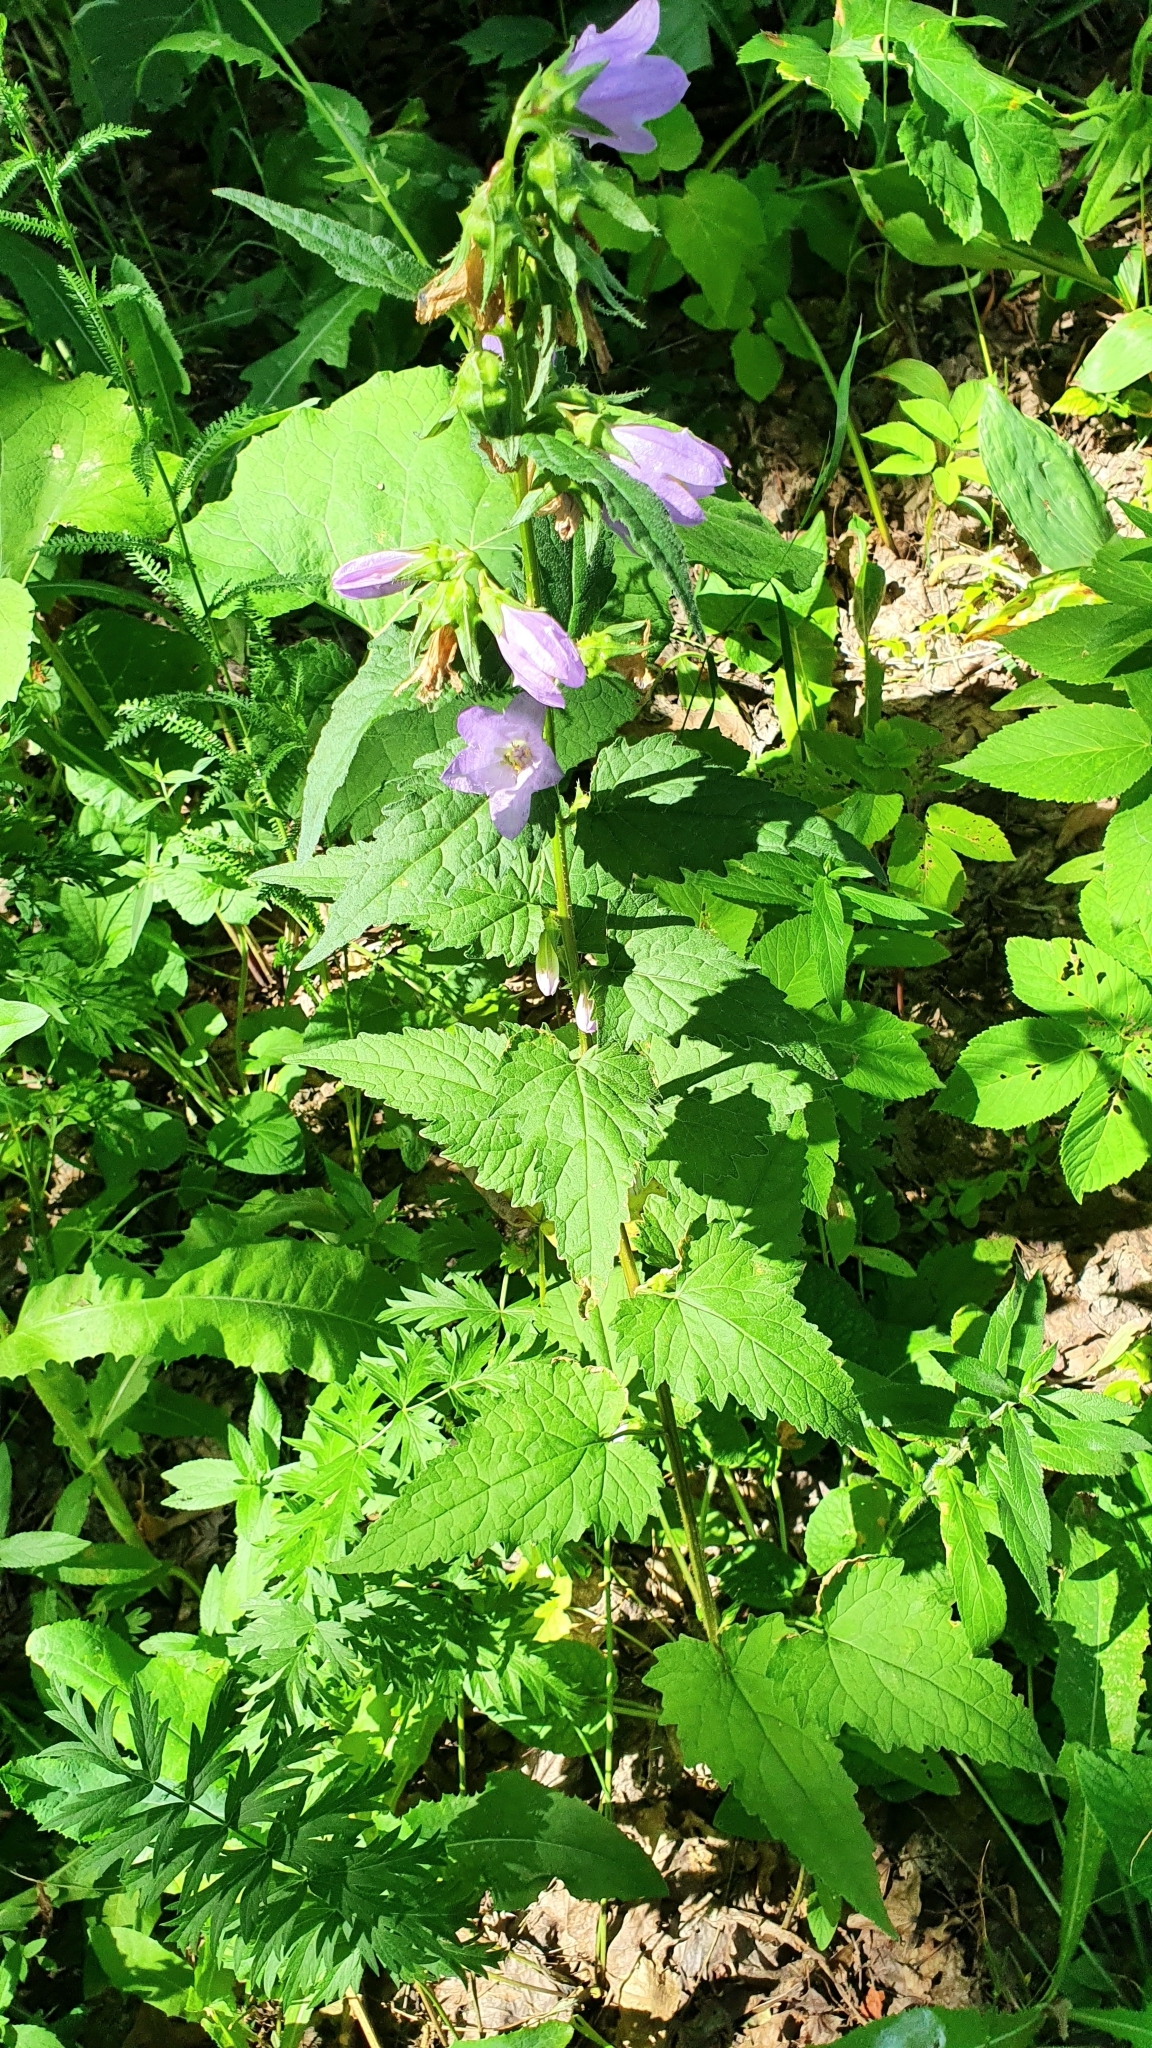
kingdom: Plantae
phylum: Tracheophyta
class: Magnoliopsida
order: Asterales
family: Campanulaceae
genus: Campanula
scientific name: Campanula trachelium
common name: Nettle-leaved bellflower
